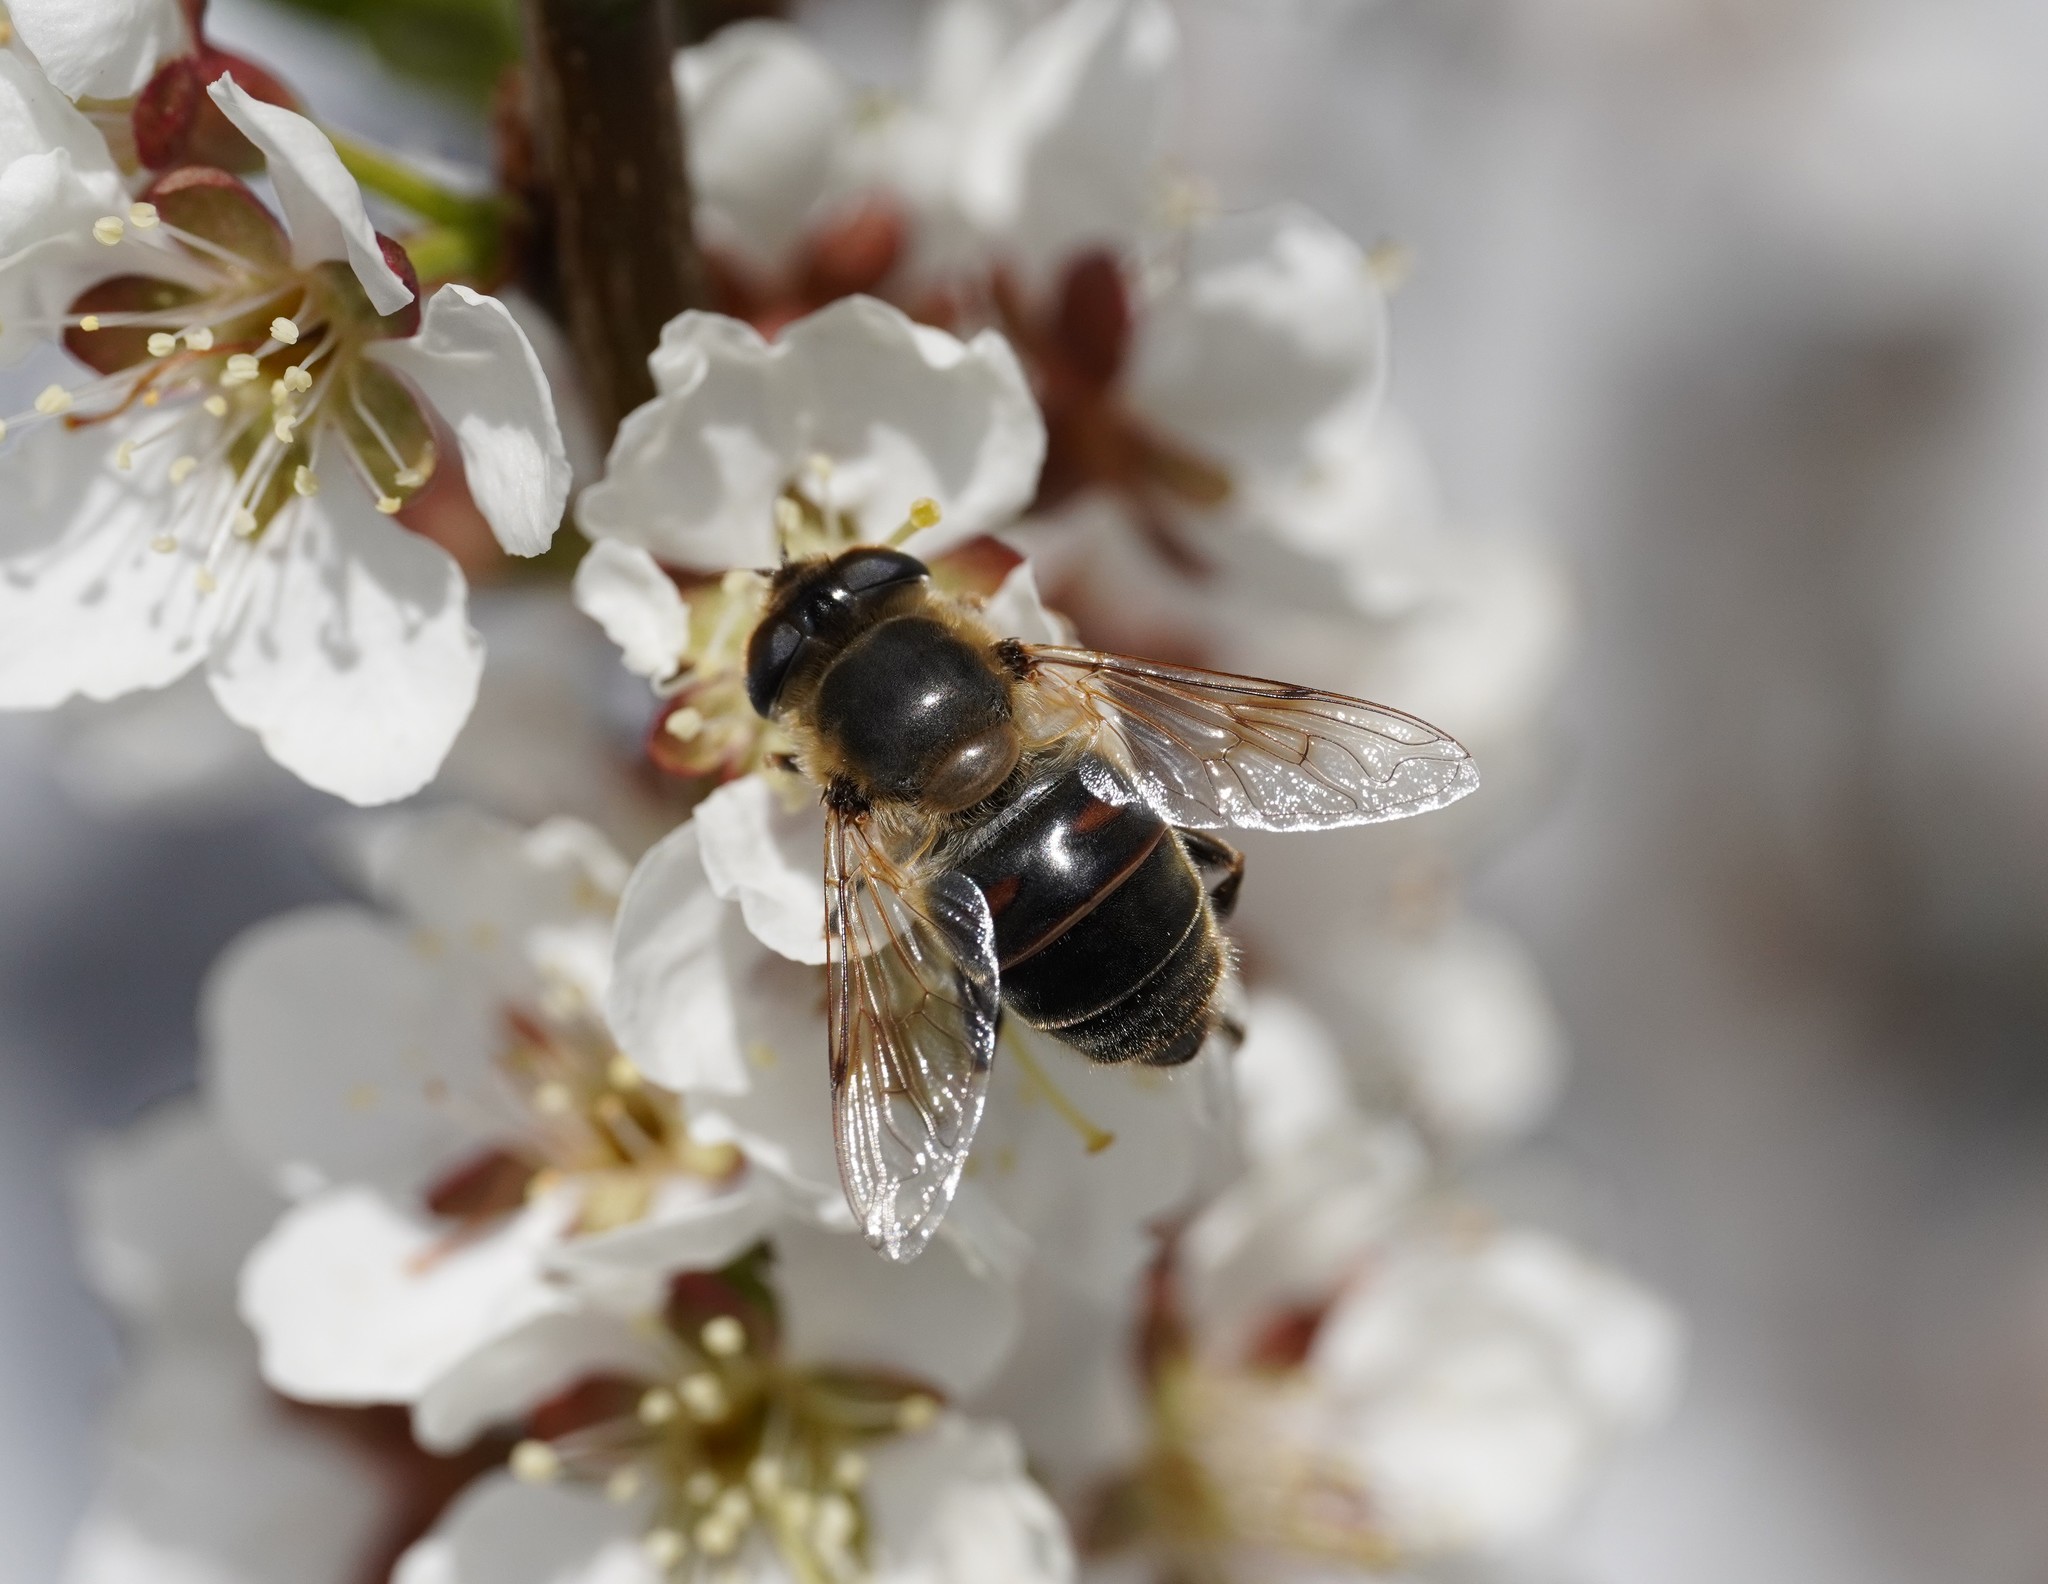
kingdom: Animalia
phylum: Arthropoda
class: Insecta
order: Diptera
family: Syrphidae
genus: Eristalis
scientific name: Eristalis tenax
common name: Drone fly
